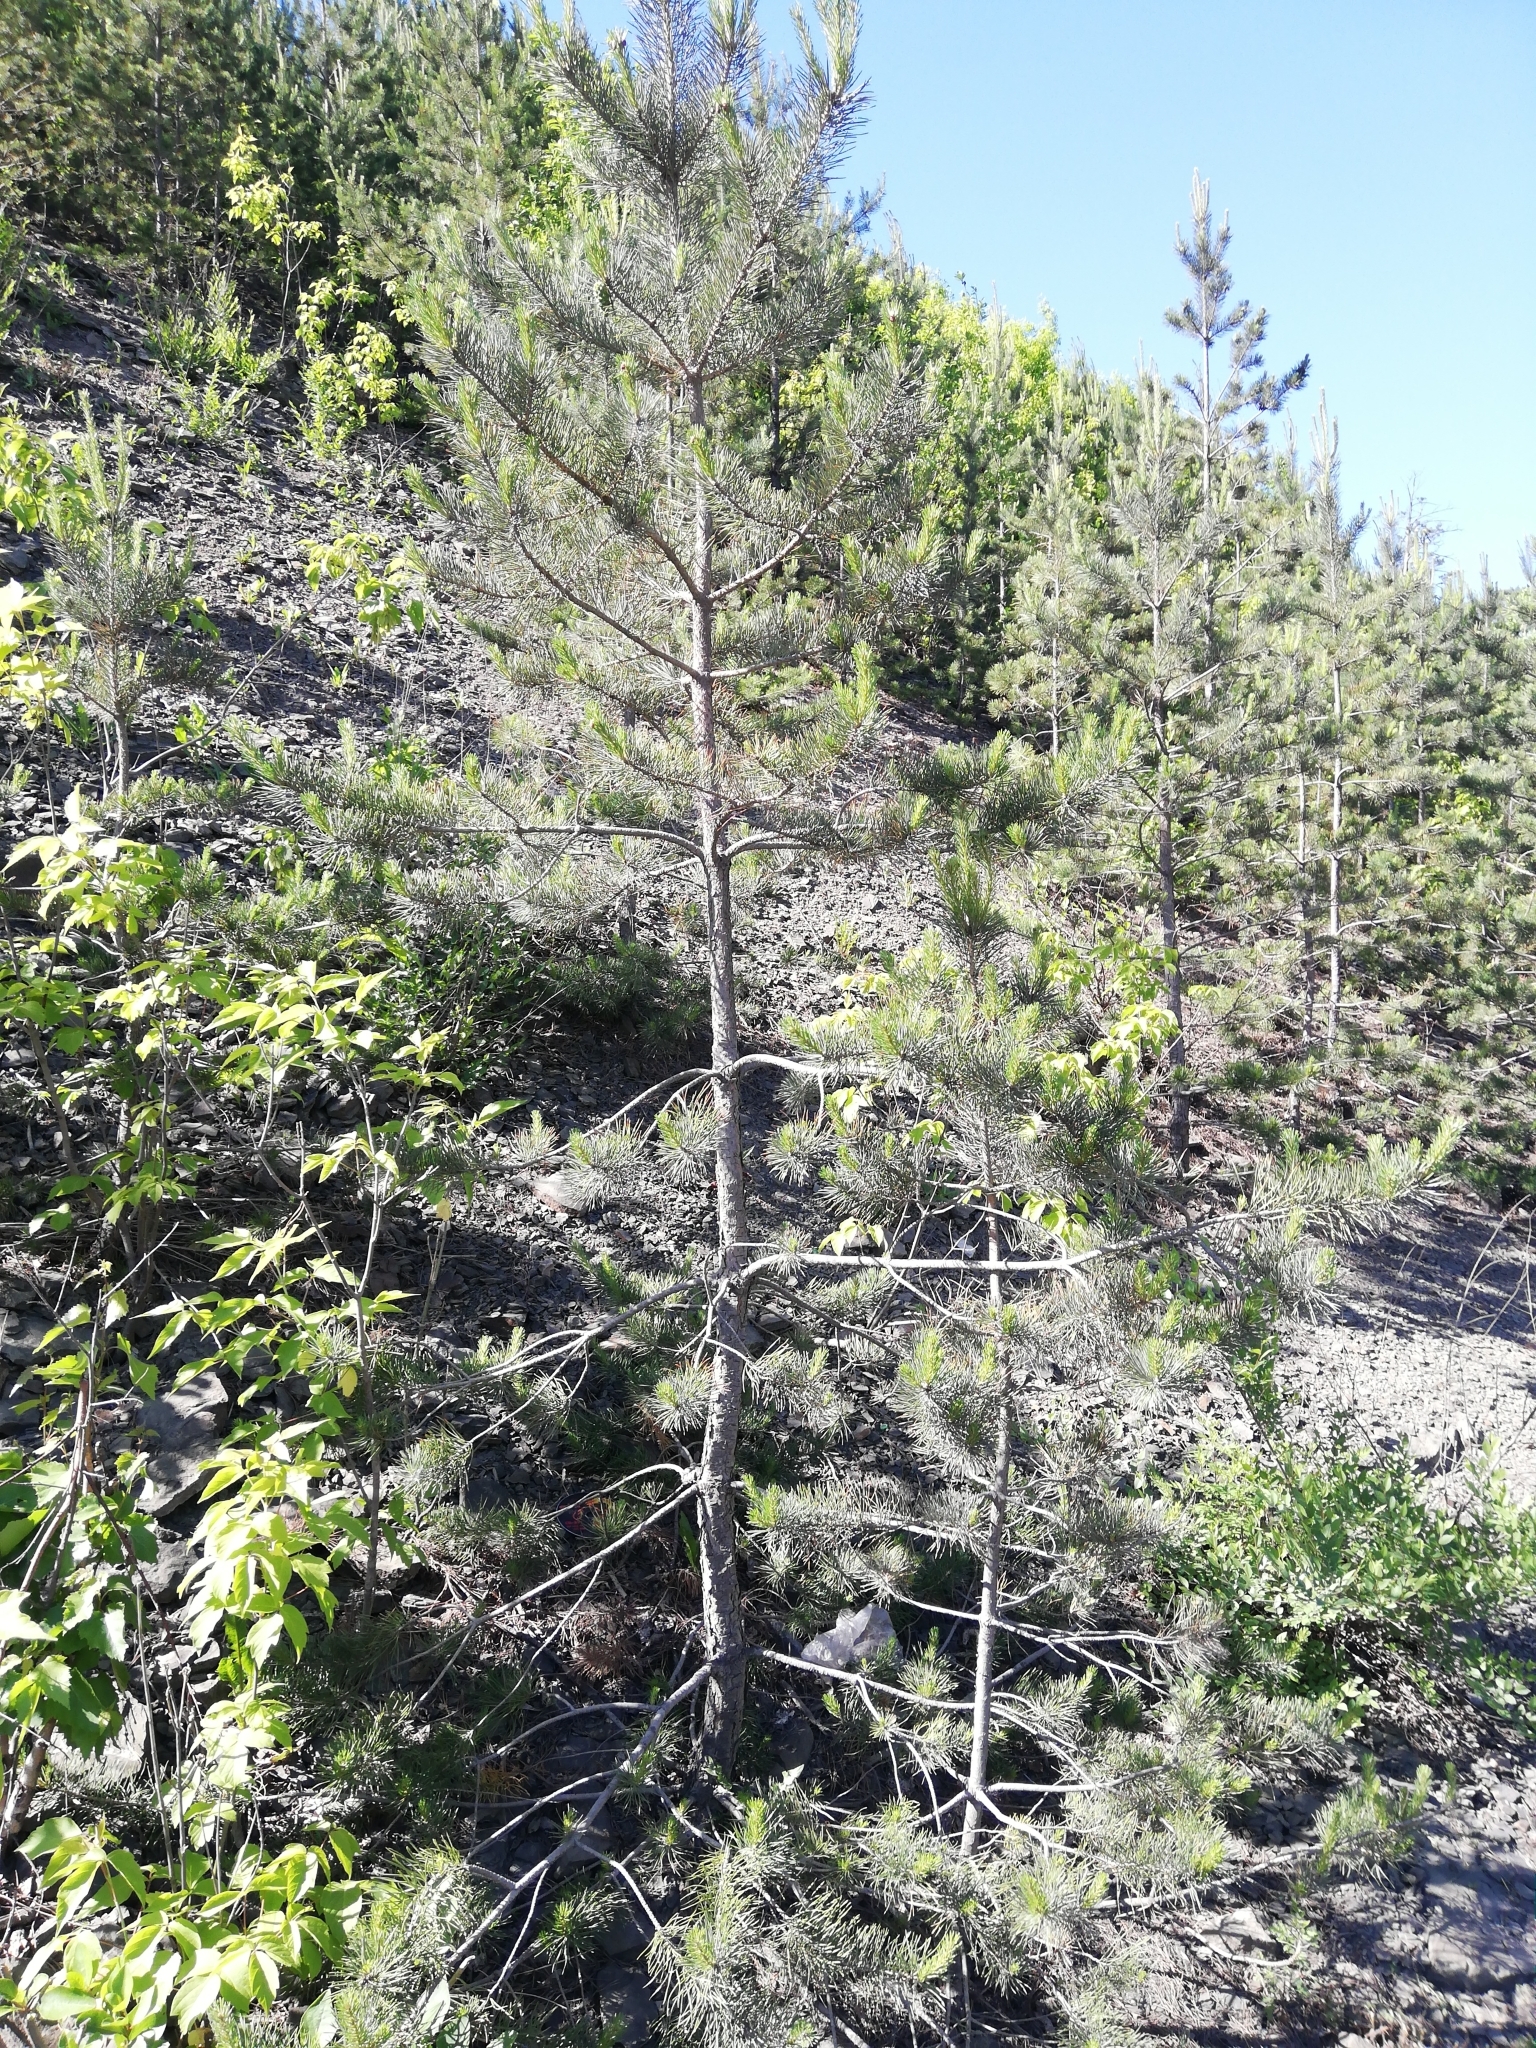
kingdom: Plantae
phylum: Tracheophyta
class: Pinopsida
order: Pinales
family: Pinaceae
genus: Pinus
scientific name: Pinus sylvestris
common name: Scots pine
